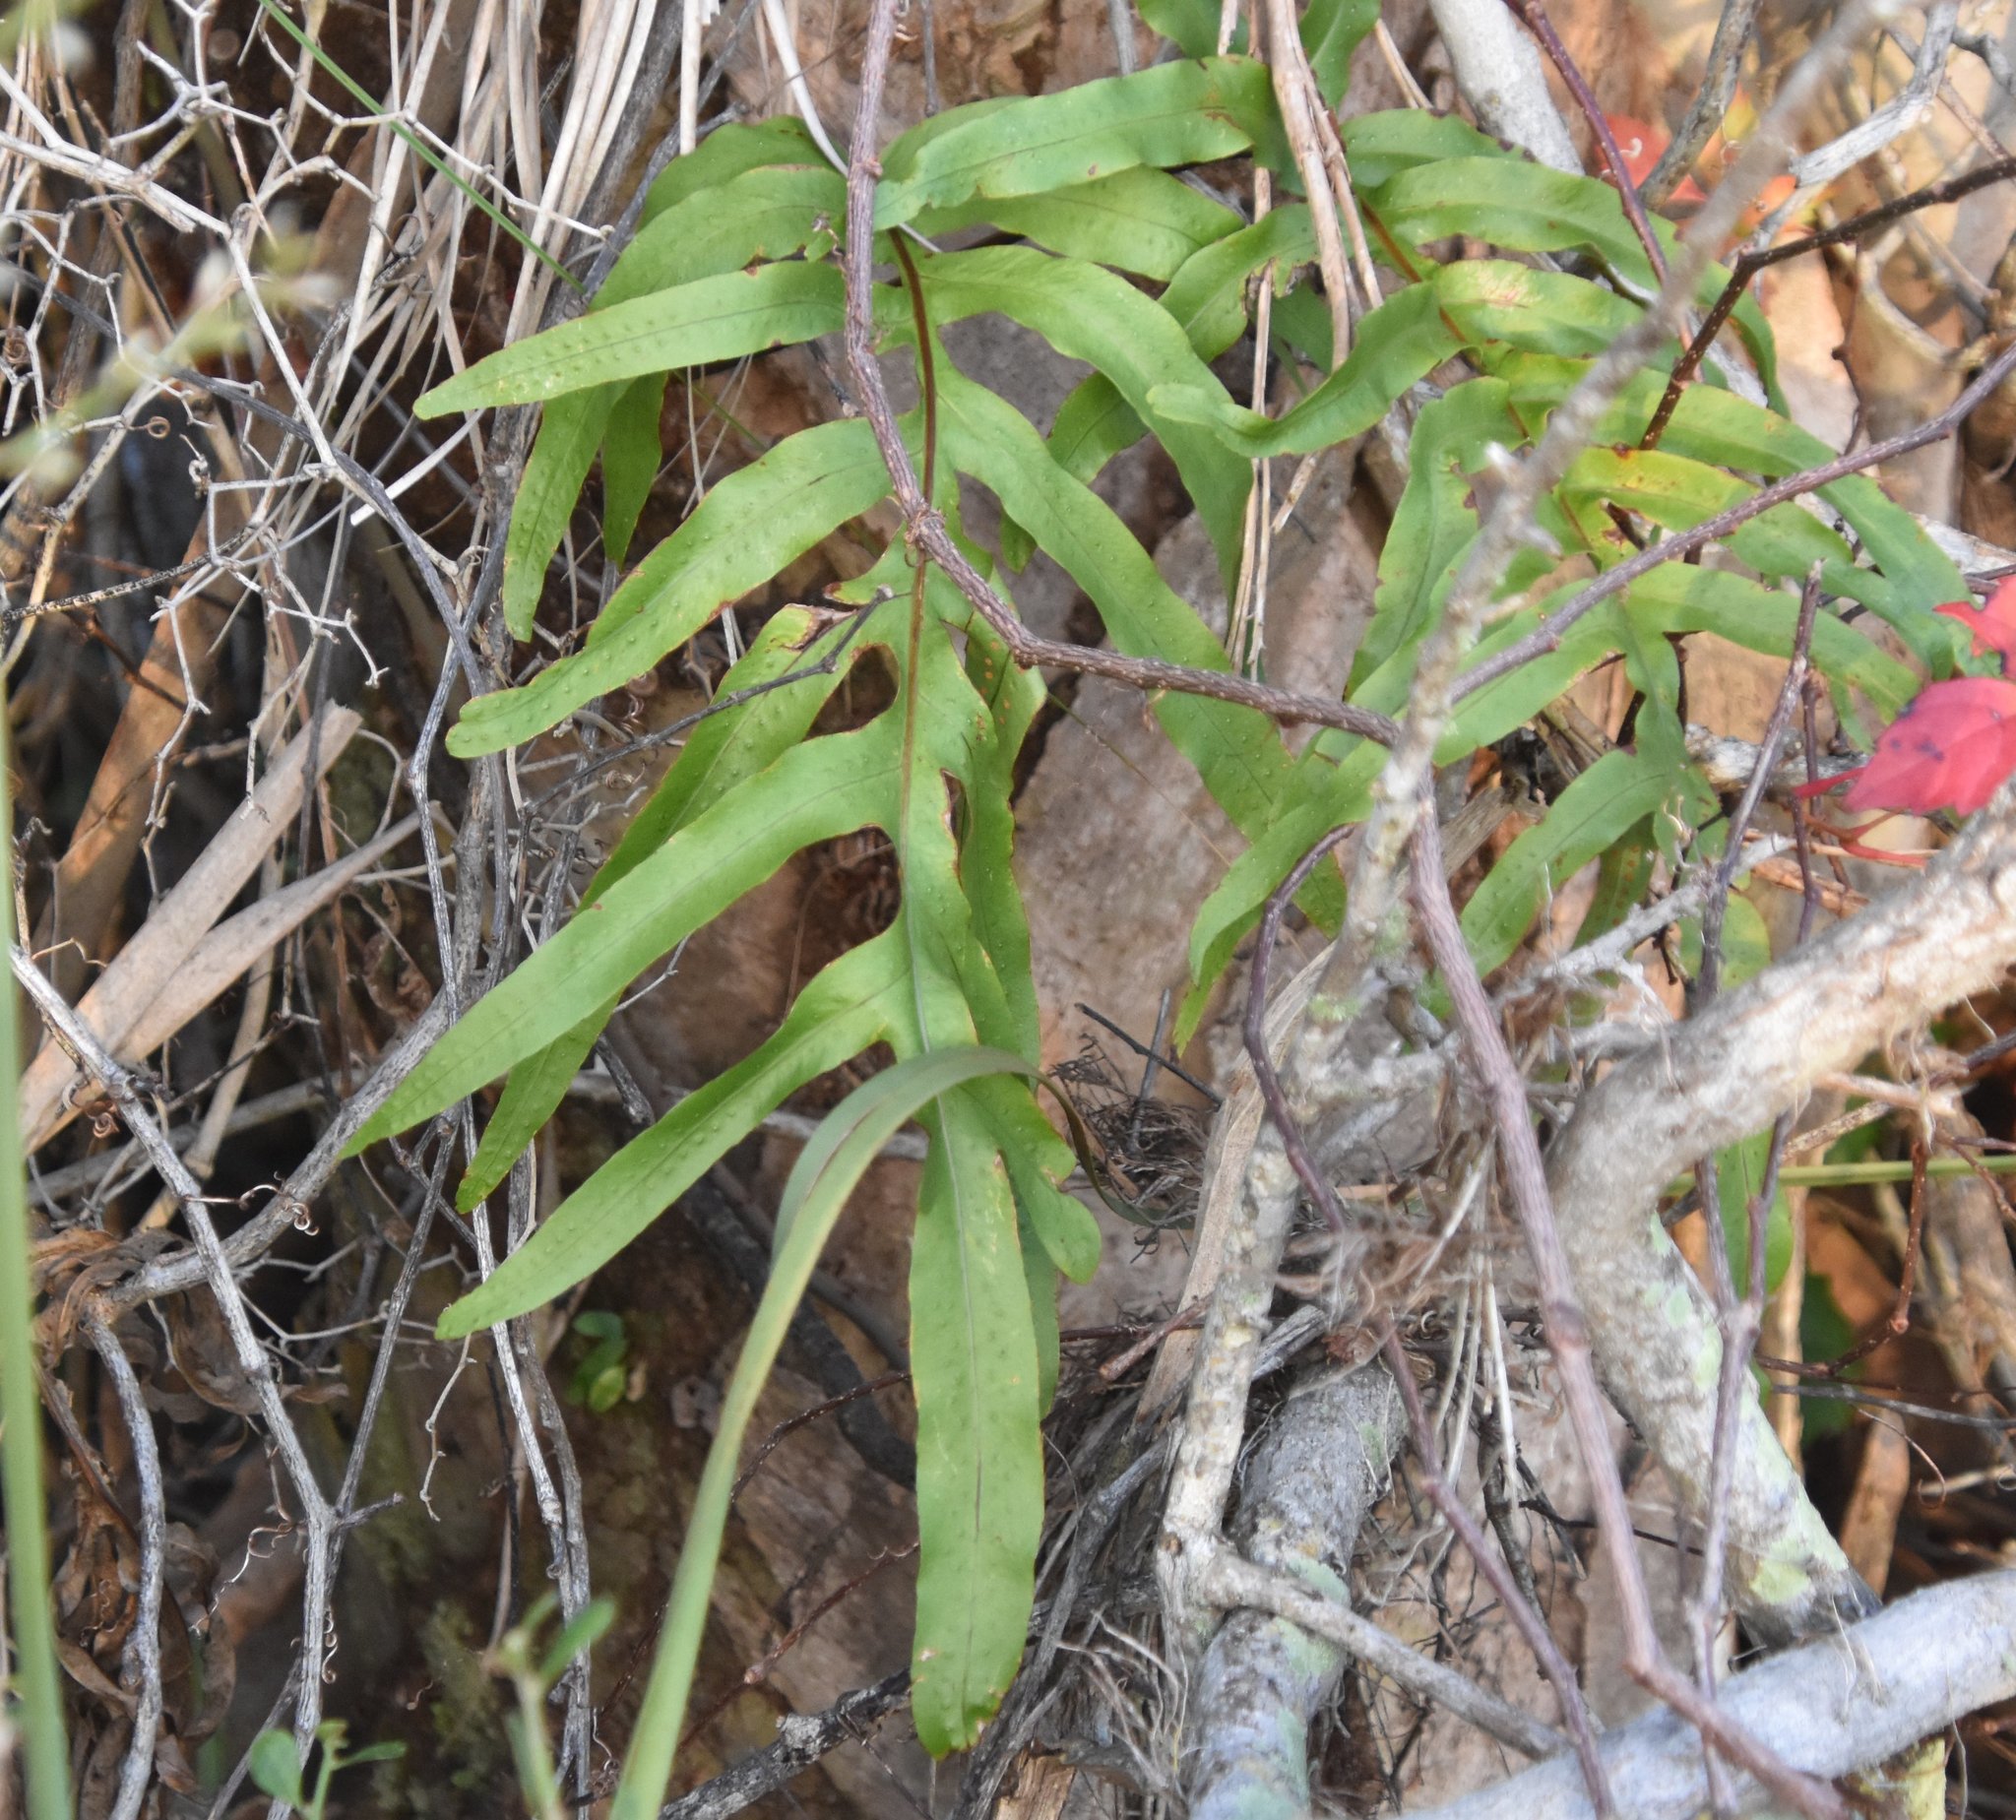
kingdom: Plantae
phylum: Tracheophyta
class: Polypodiopsida
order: Polypodiales
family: Polypodiaceae
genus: Phlebodium
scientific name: Phlebodium aureum
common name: Gold-foot fern
